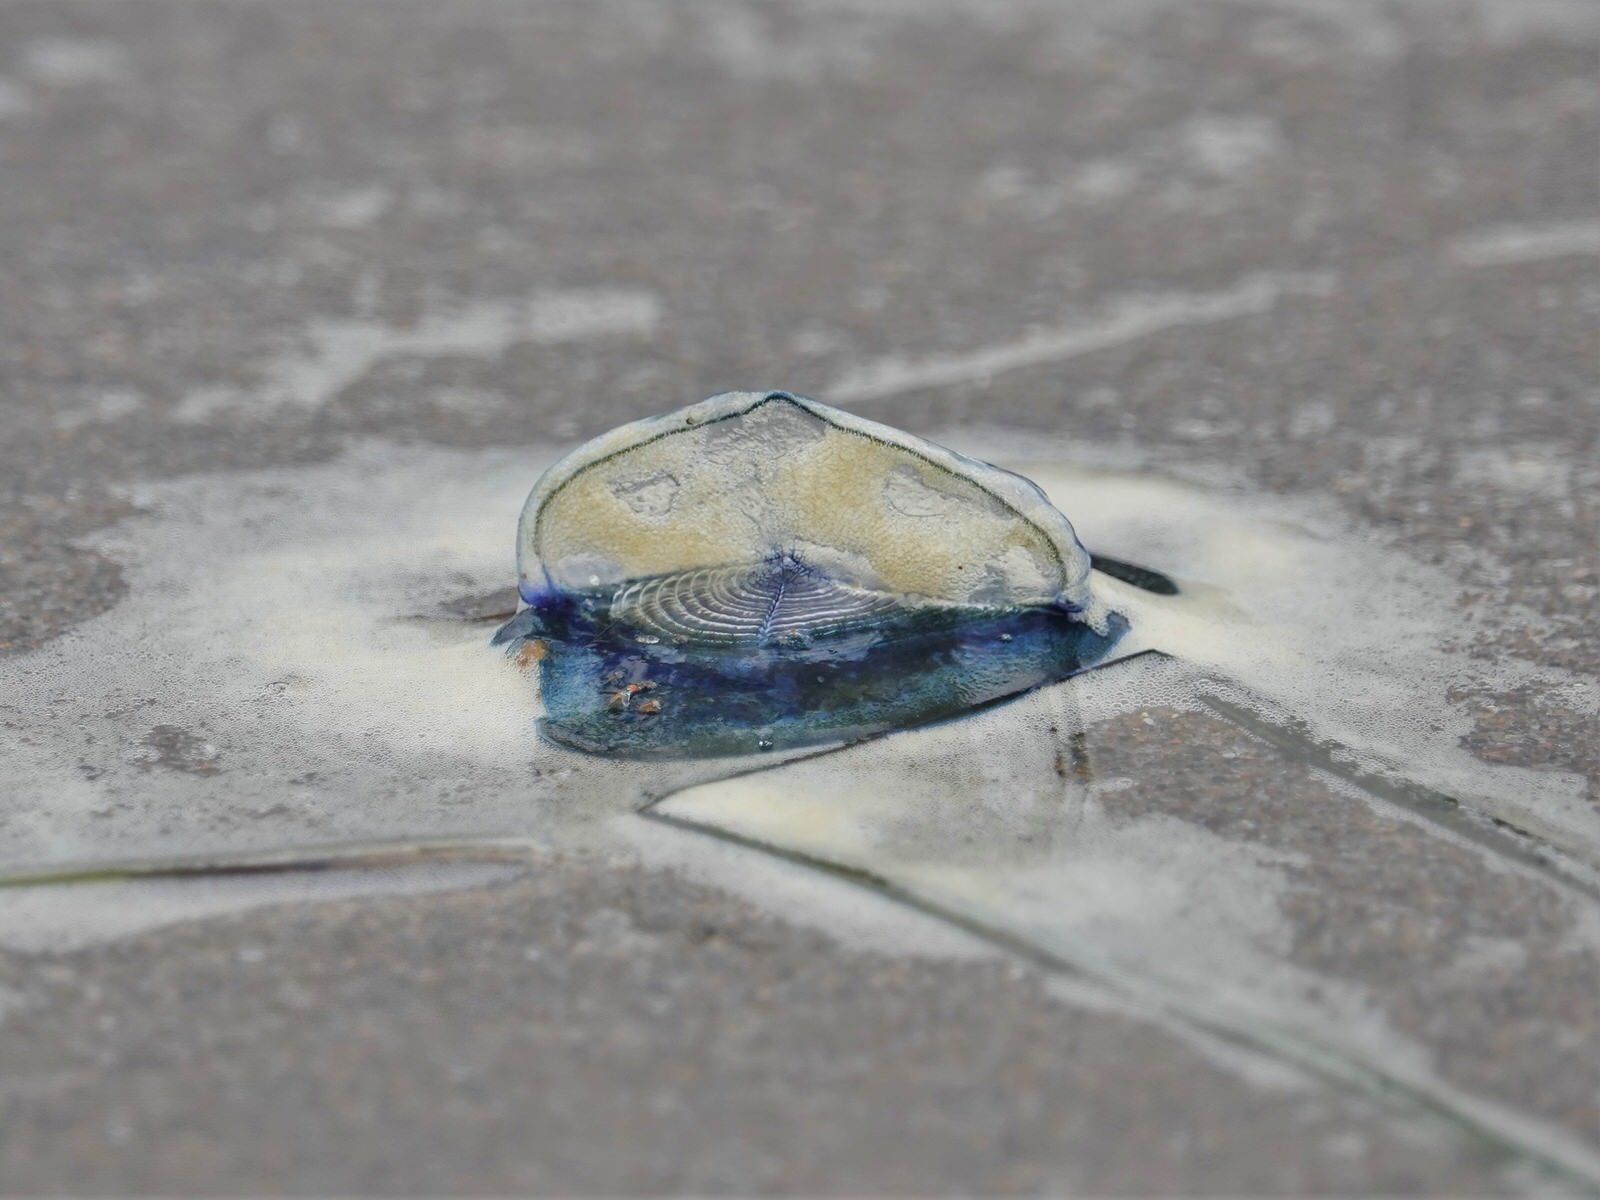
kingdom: Animalia
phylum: Cnidaria
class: Hydrozoa
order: Anthoathecata
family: Porpitidae
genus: Velella
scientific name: Velella velella
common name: By-the-wind-sailor
